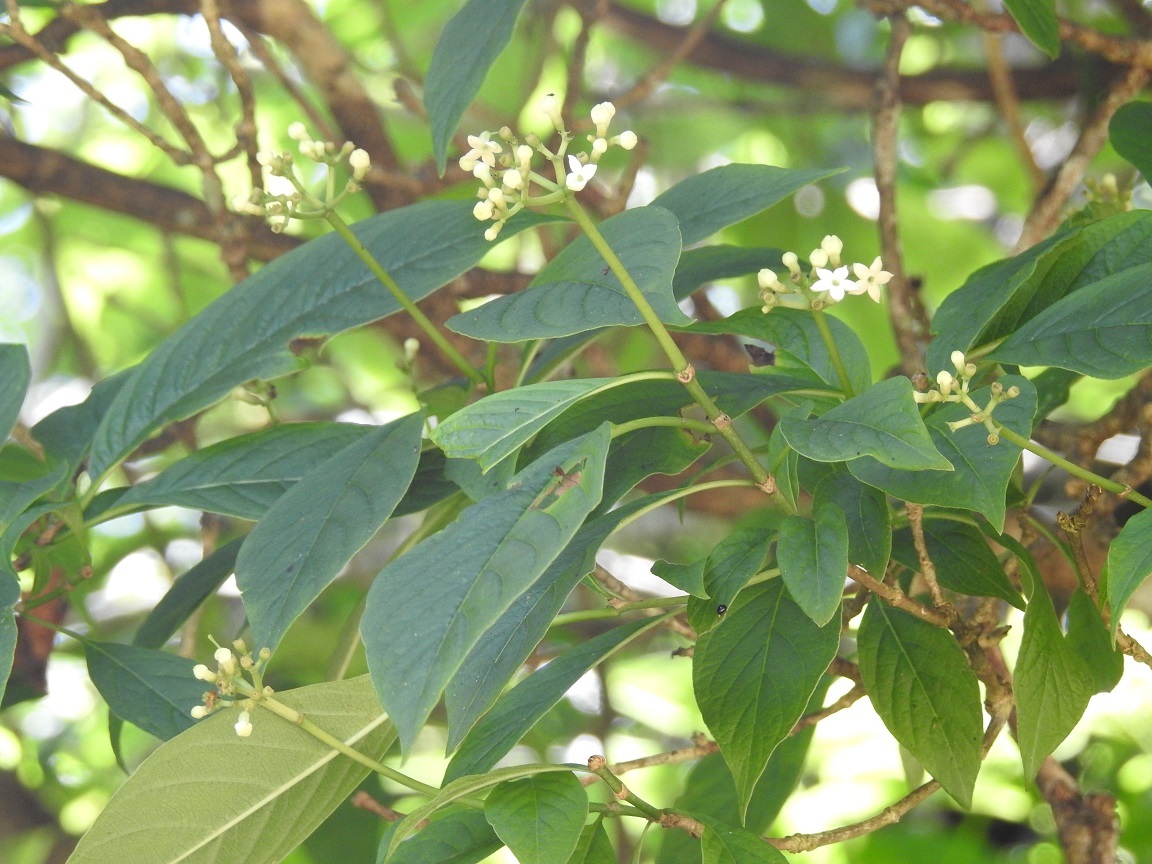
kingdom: Plantae
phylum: Tracheophyta
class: Magnoliopsida
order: Gentianales
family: Rubiaceae
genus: Eumachia
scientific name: Eumachia microdon
